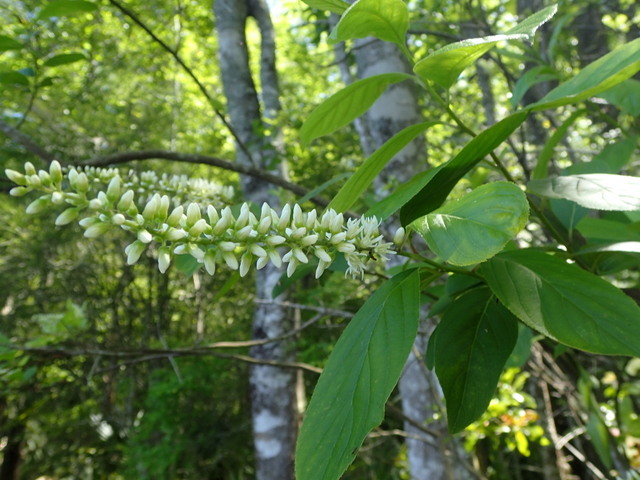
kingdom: Plantae
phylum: Tracheophyta
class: Magnoliopsida
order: Saxifragales
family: Iteaceae
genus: Itea
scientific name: Itea virginica
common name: Sweetspire
